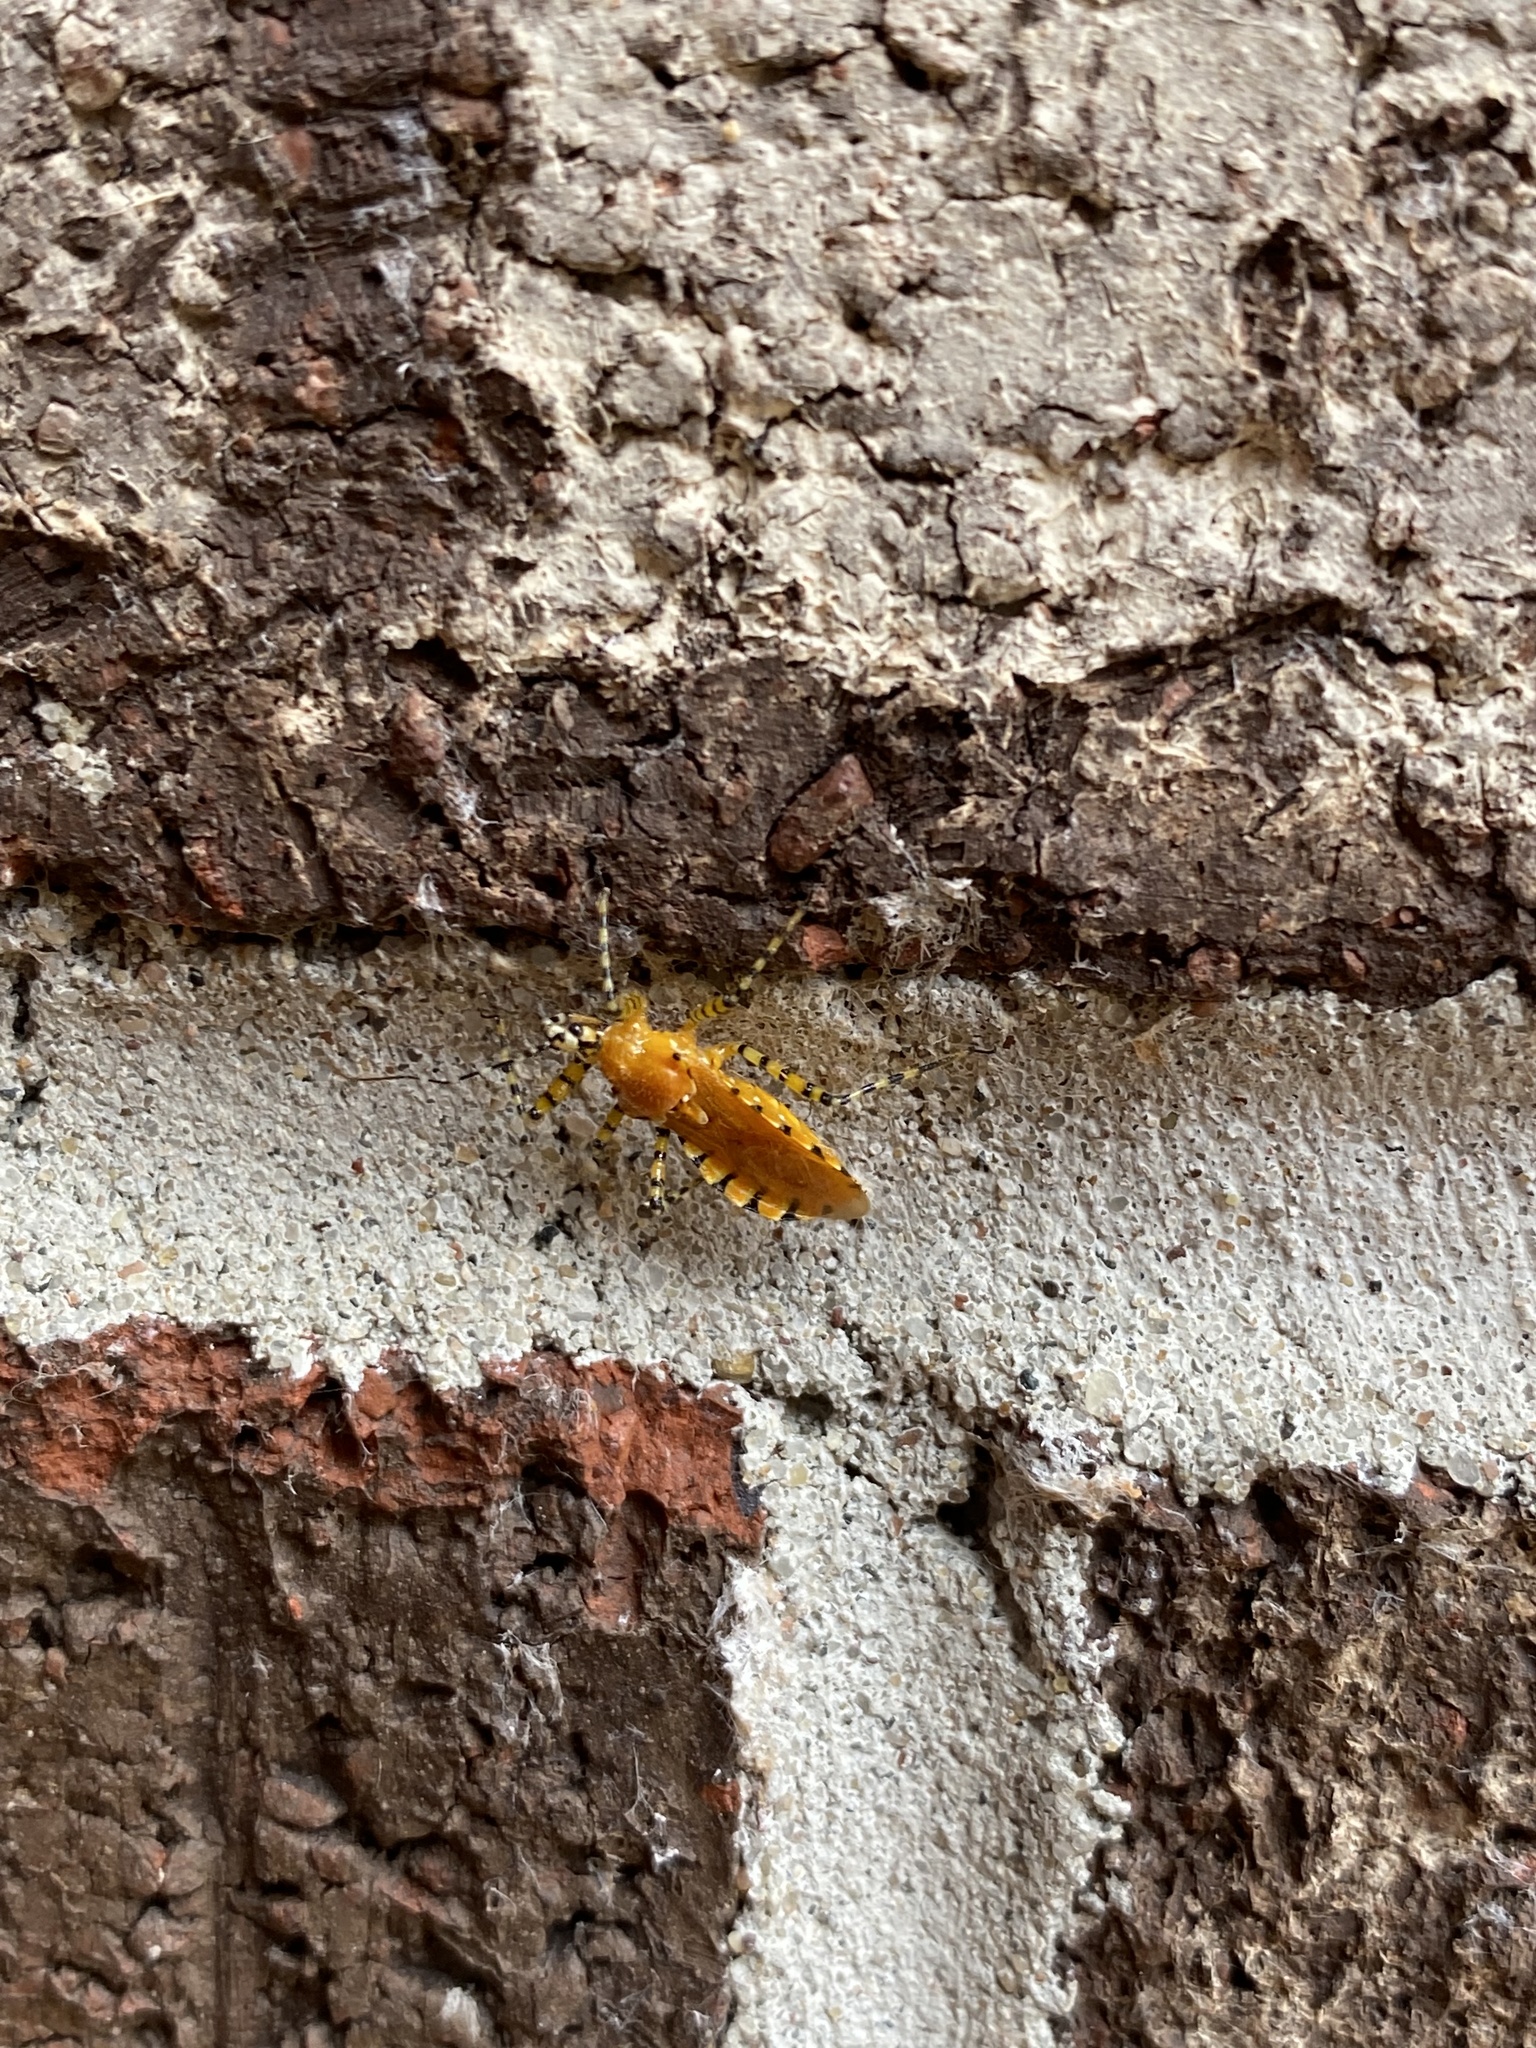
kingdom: Animalia
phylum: Arthropoda
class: Insecta
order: Hemiptera
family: Reduviidae
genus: Pselliopus
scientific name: Pselliopus barberi
